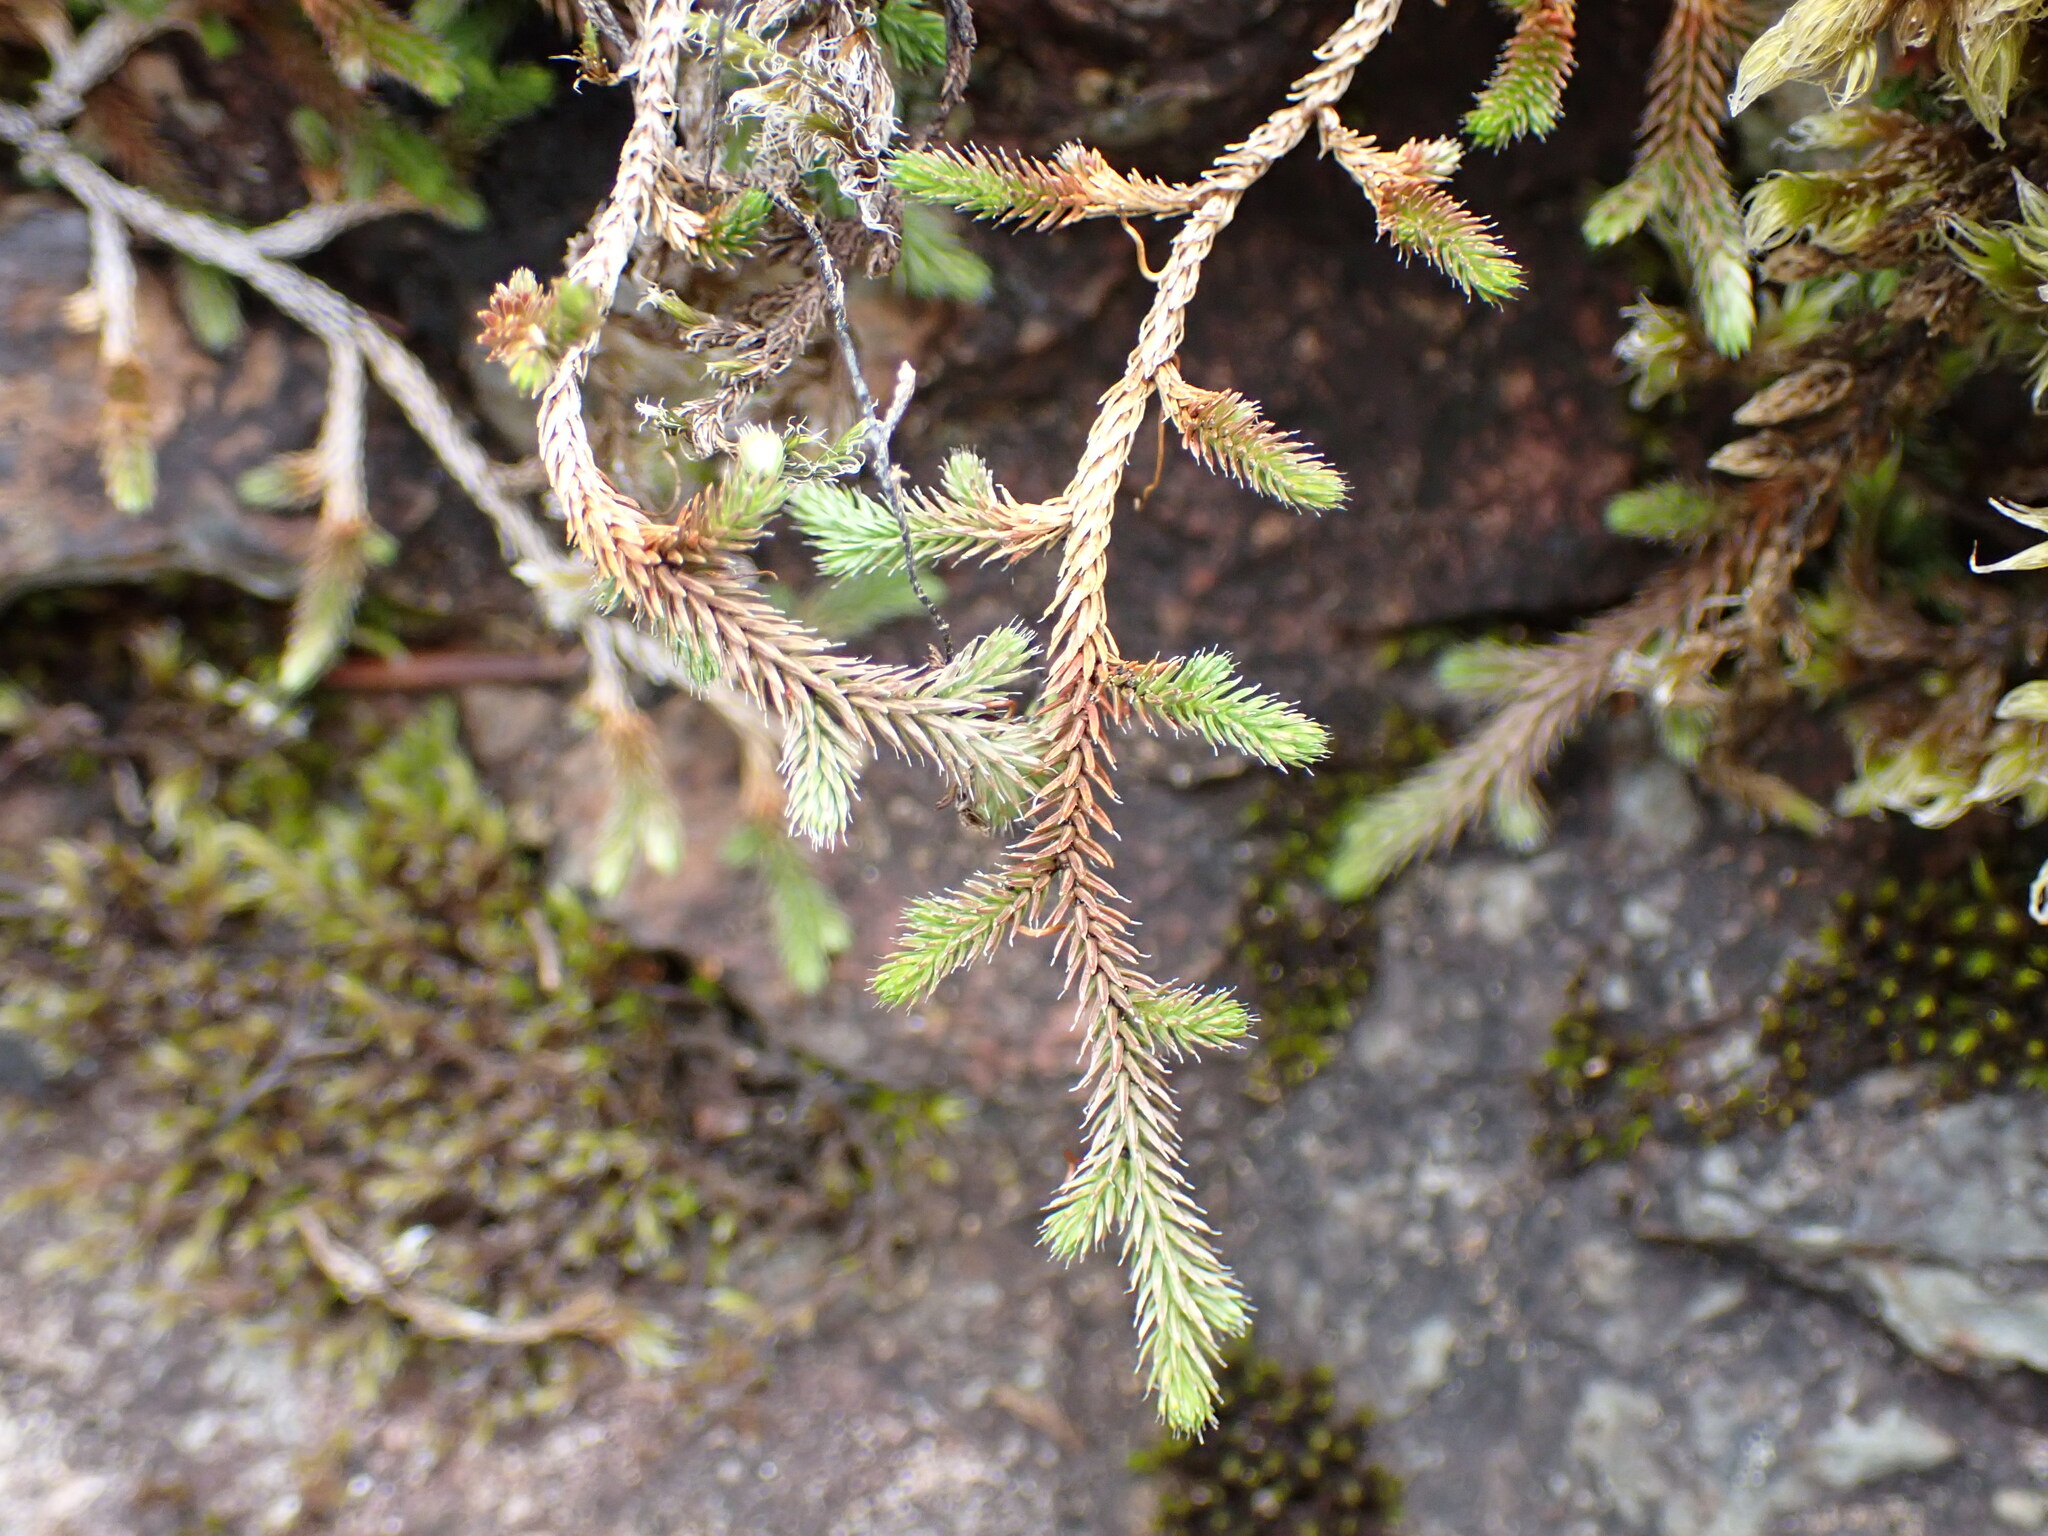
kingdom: Plantae
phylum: Tracheophyta
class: Lycopodiopsida
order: Selaginellales
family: Selaginellaceae
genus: Selaginella
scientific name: Selaginella wallacei
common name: Wallace's selaginella
